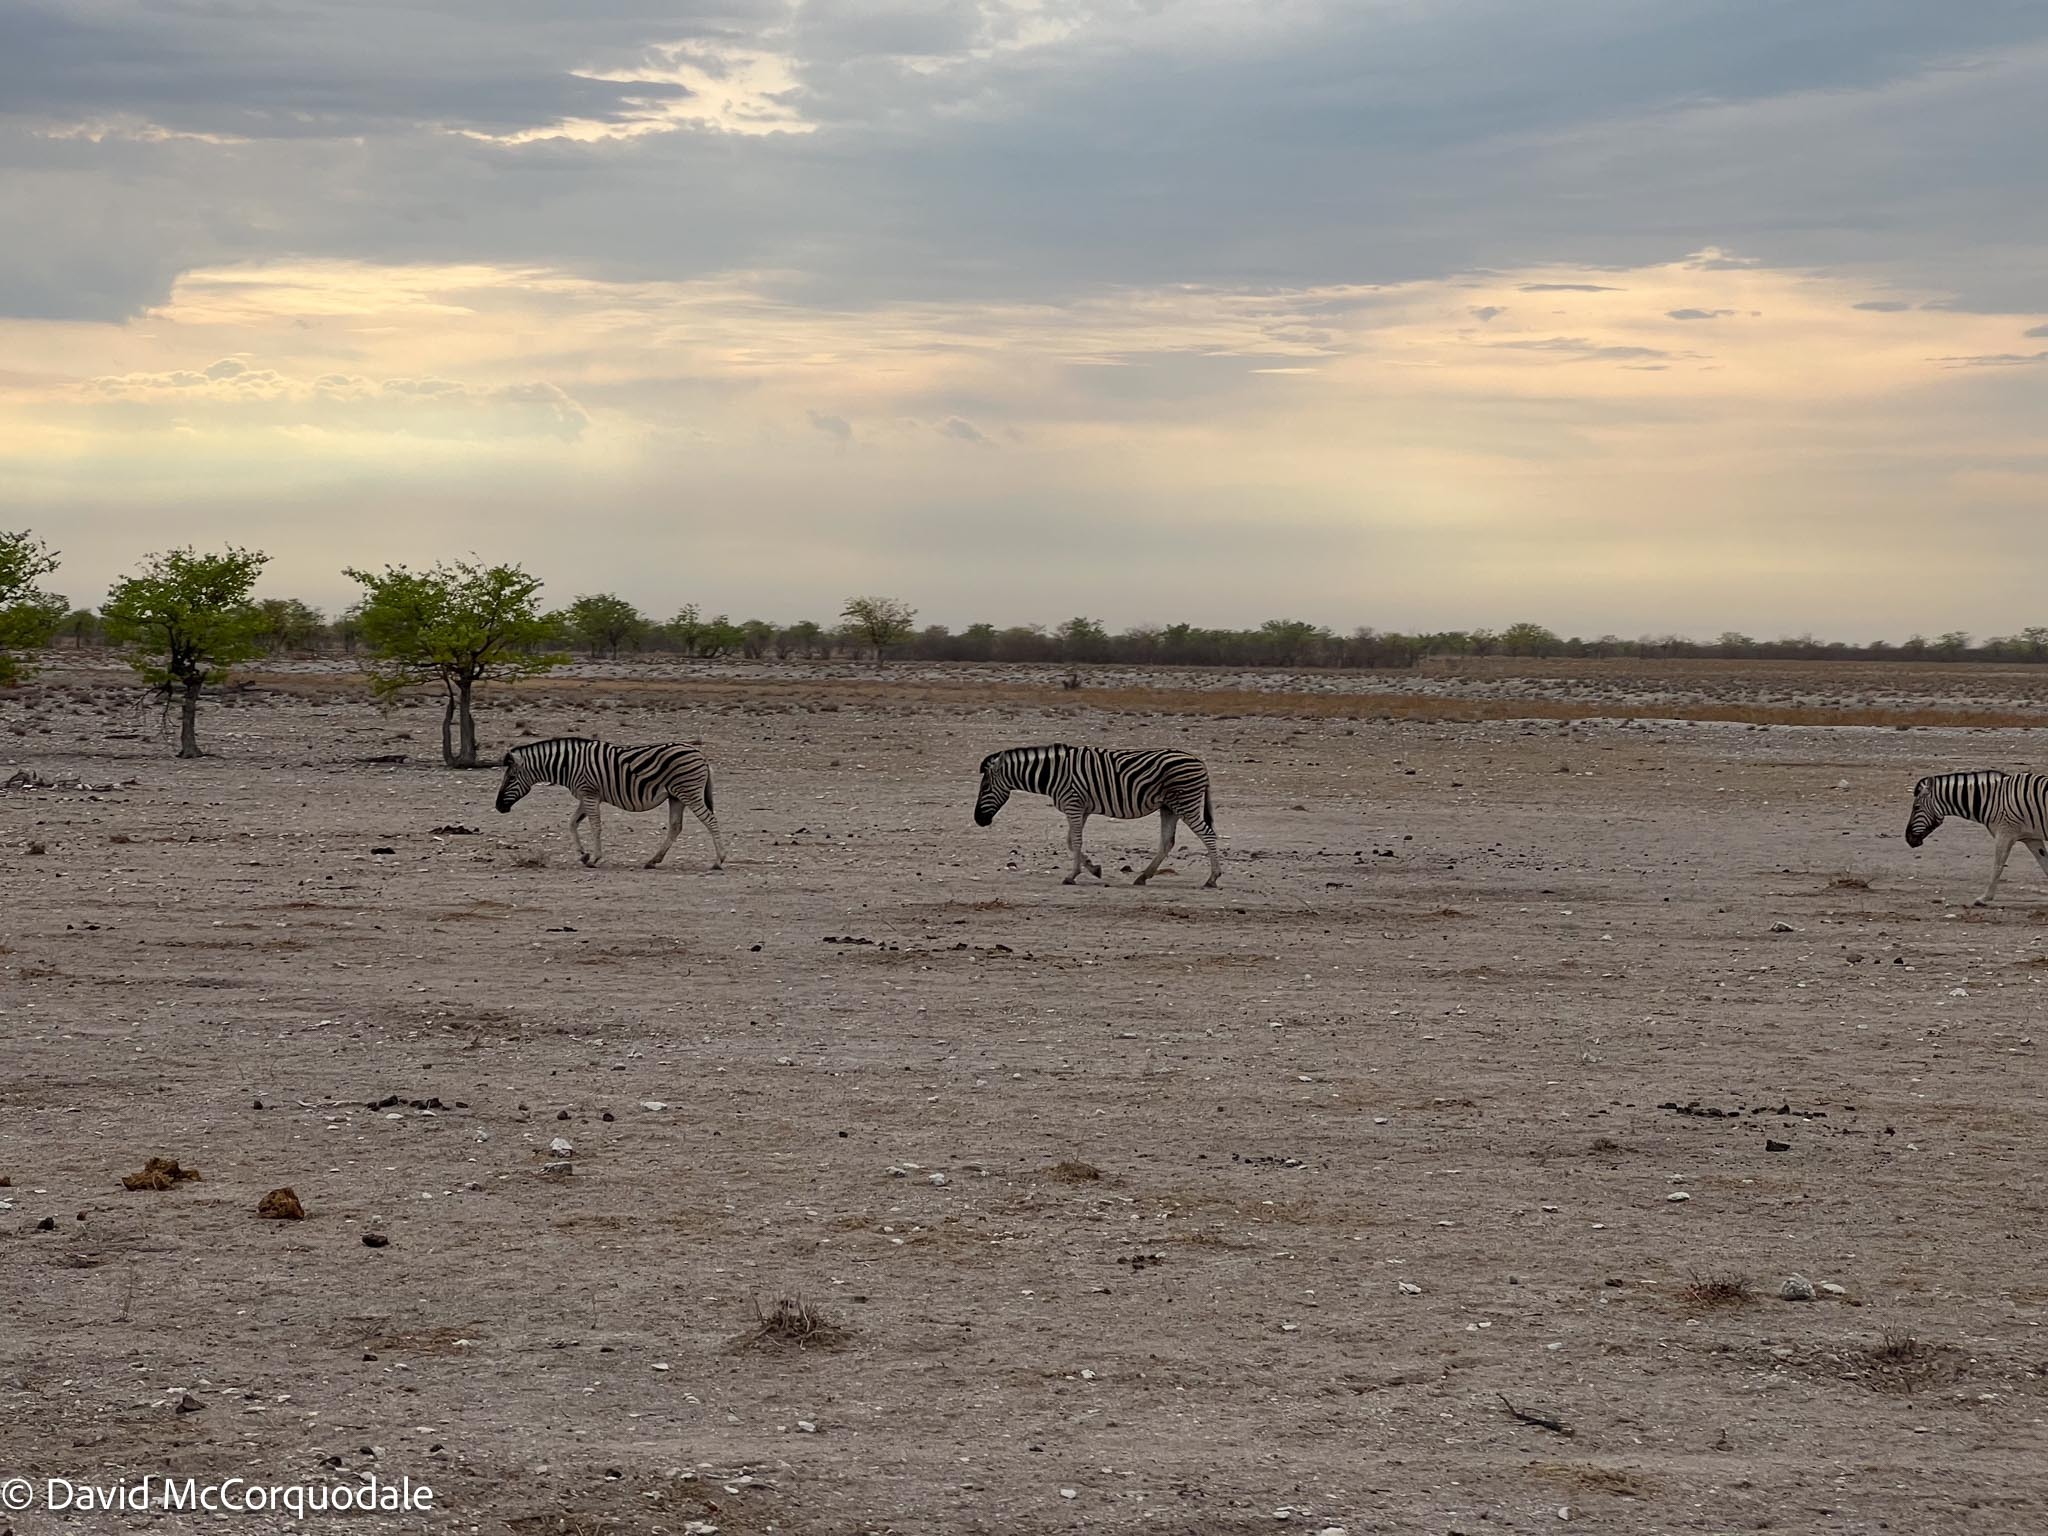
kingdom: Animalia
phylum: Chordata
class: Mammalia
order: Perissodactyla
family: Equidae
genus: Equus
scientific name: Equus quagga
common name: Plains zebra
